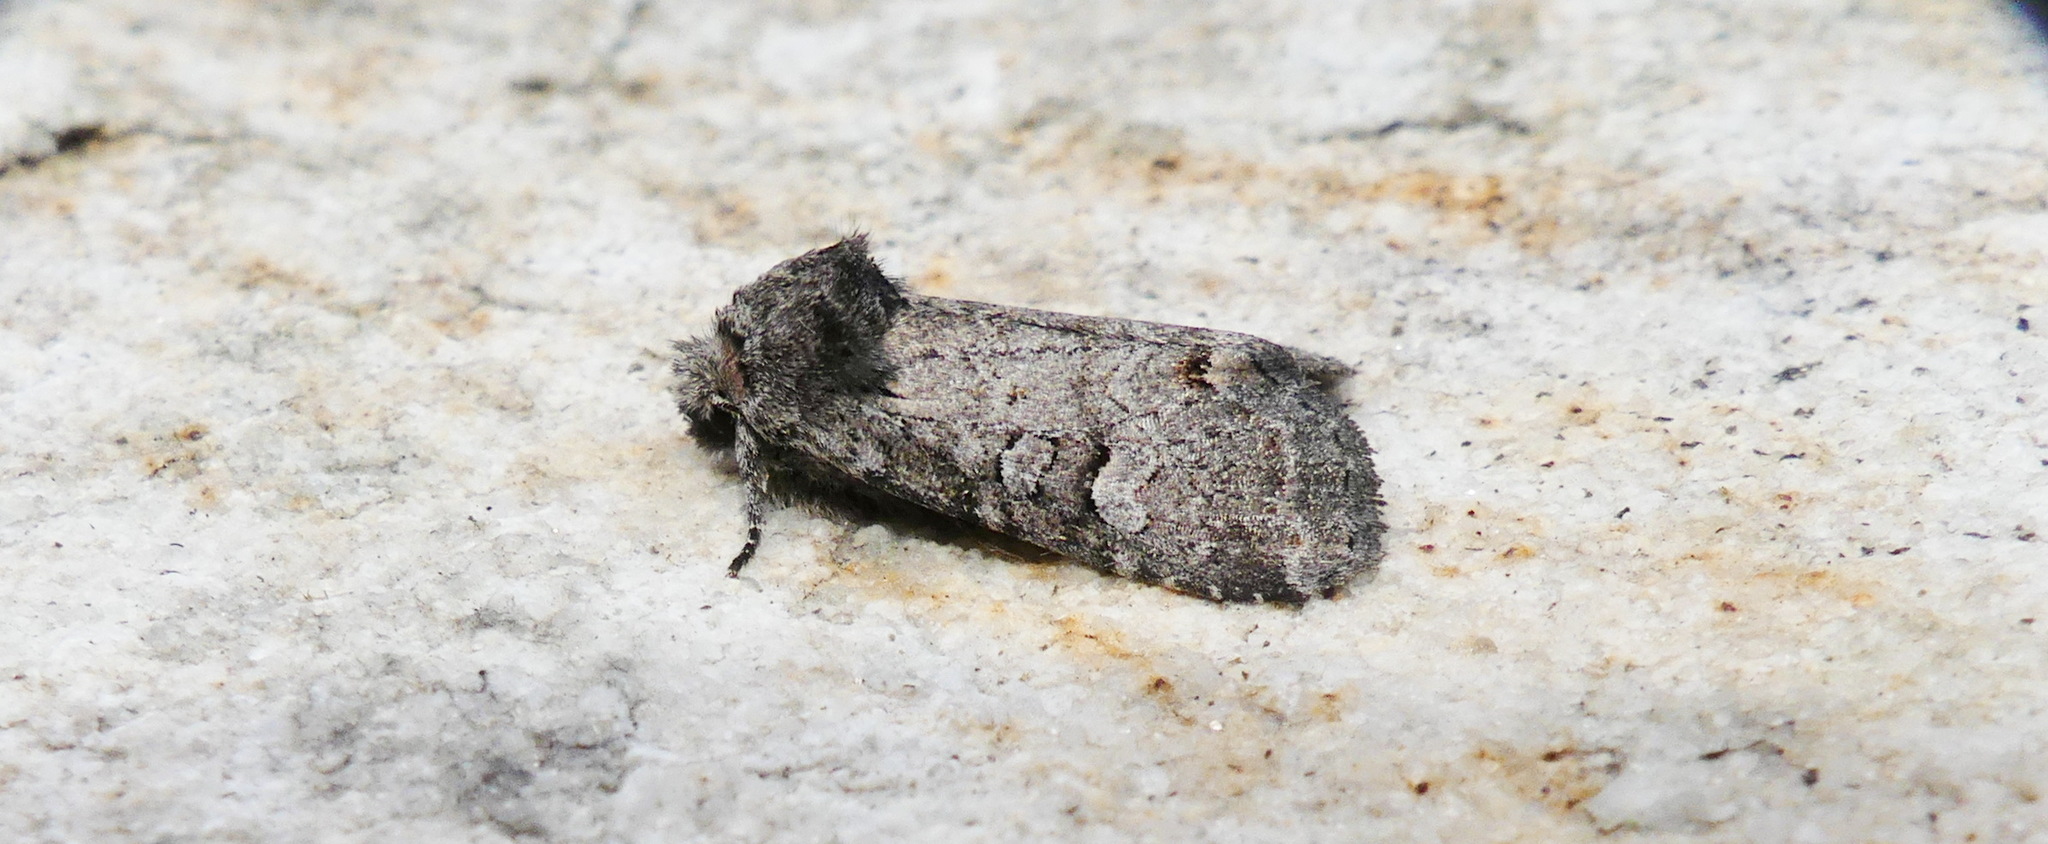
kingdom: Animalia
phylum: Arthropoda
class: Insecta
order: Lepidoptera
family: Noctuidae
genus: Brachylomia
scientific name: Brachylomia algens
